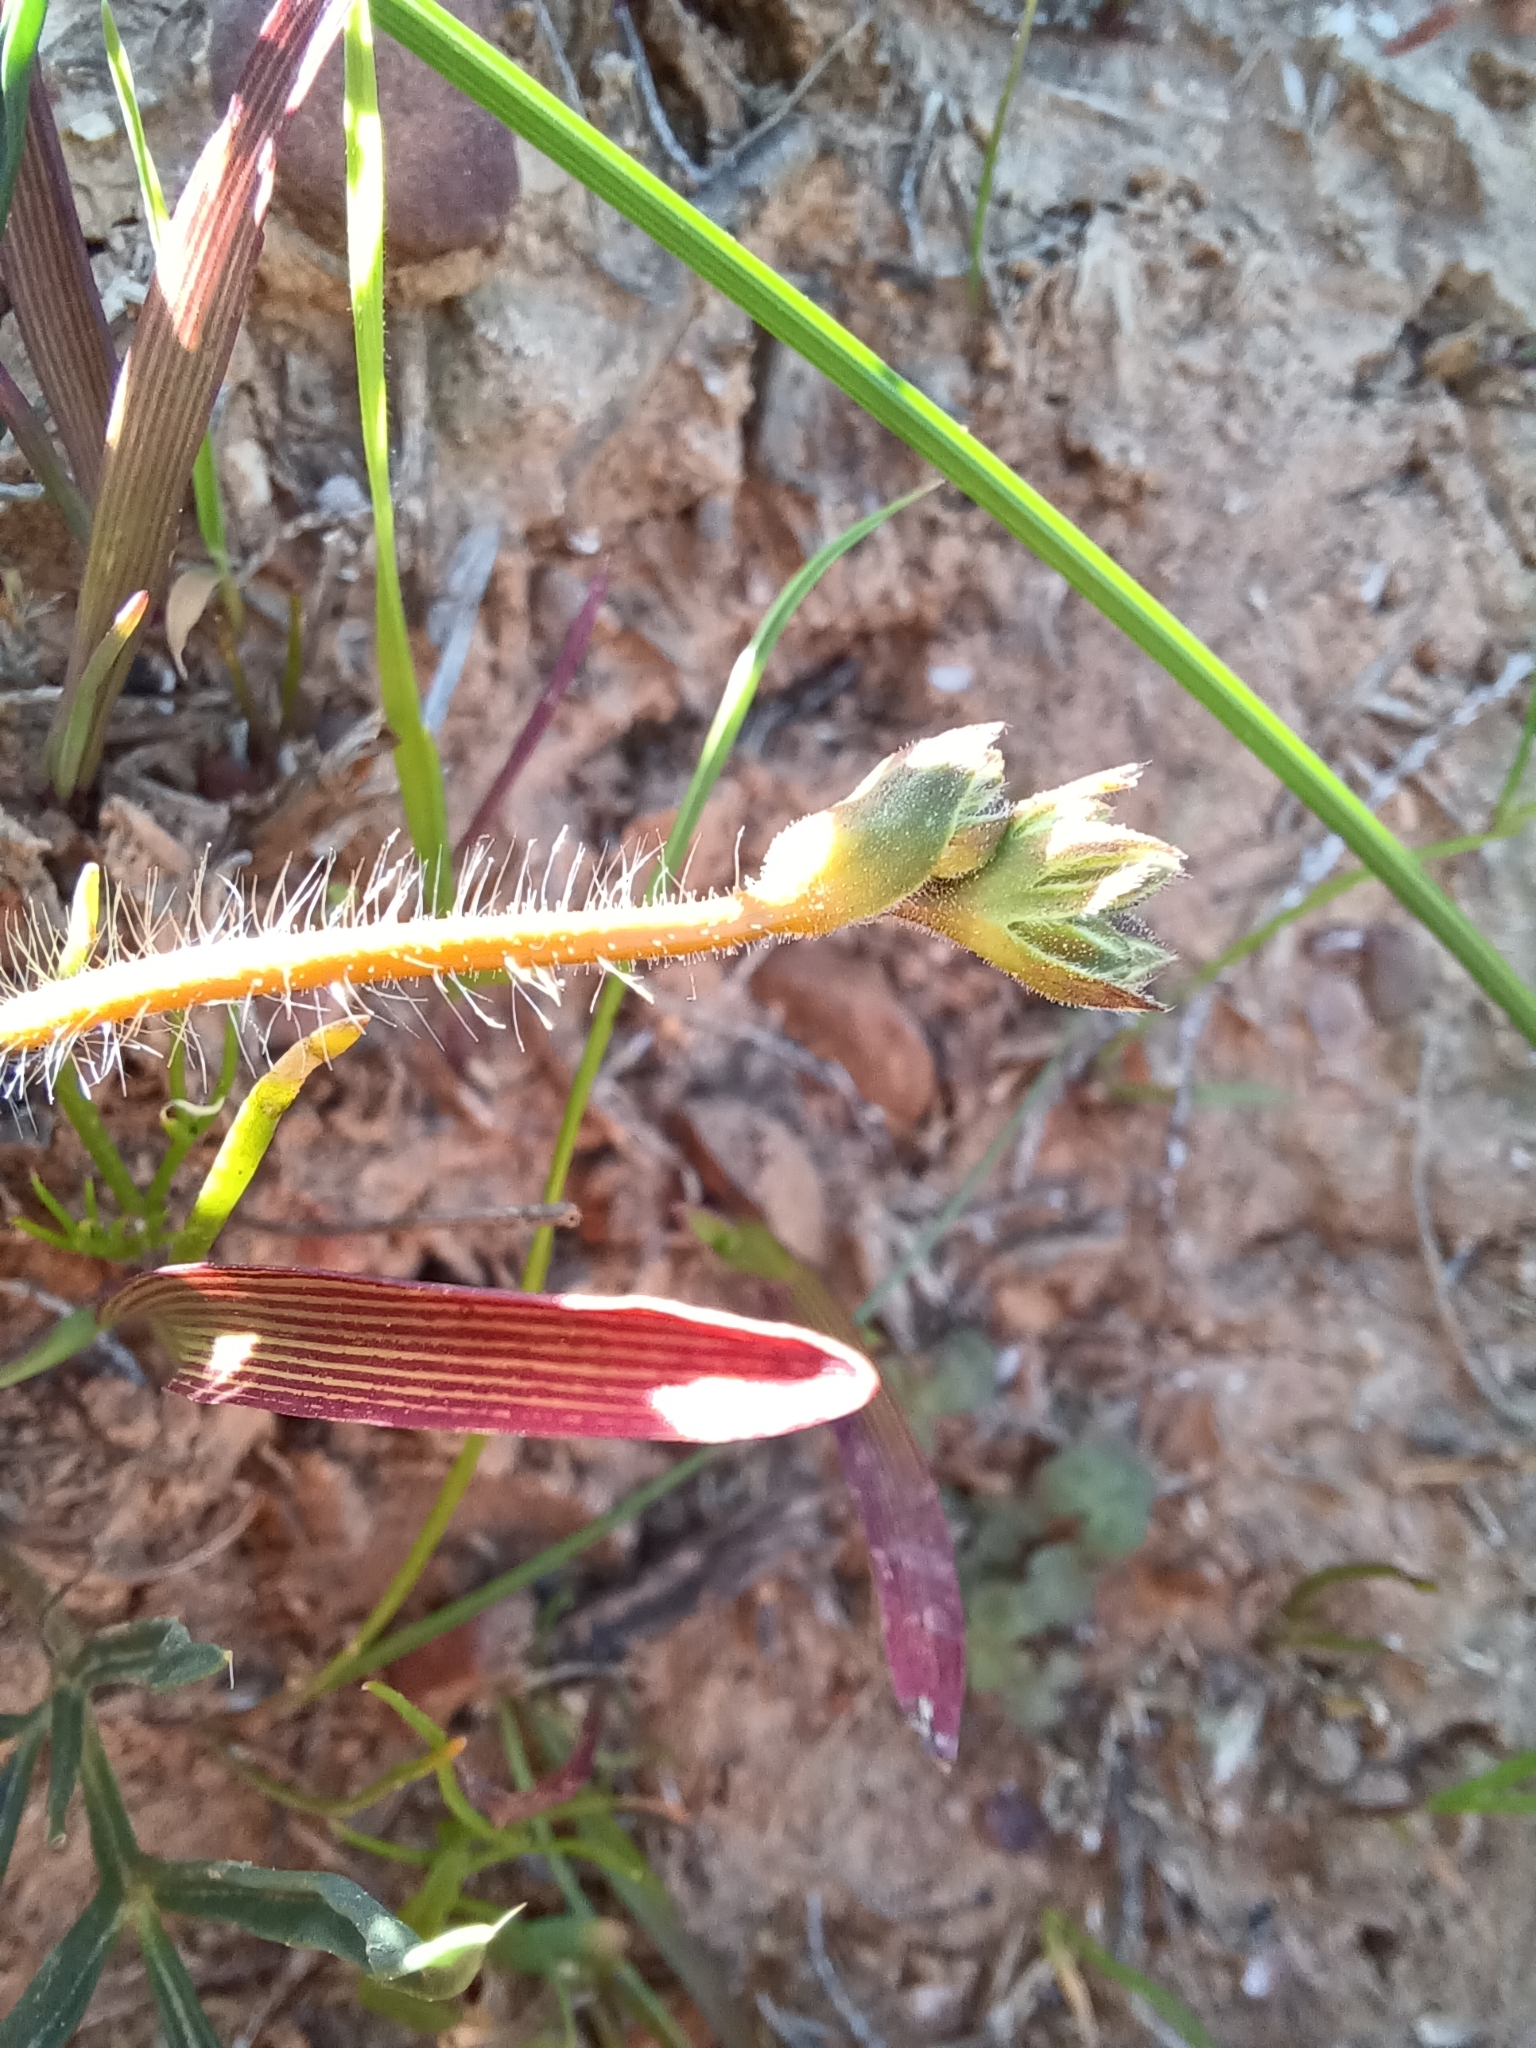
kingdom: Plantae
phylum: Tracheophyta
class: Magnoliopsida
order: Geraniales
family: Geraniaceae
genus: Pelargonium
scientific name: Pelargonium undulatum
